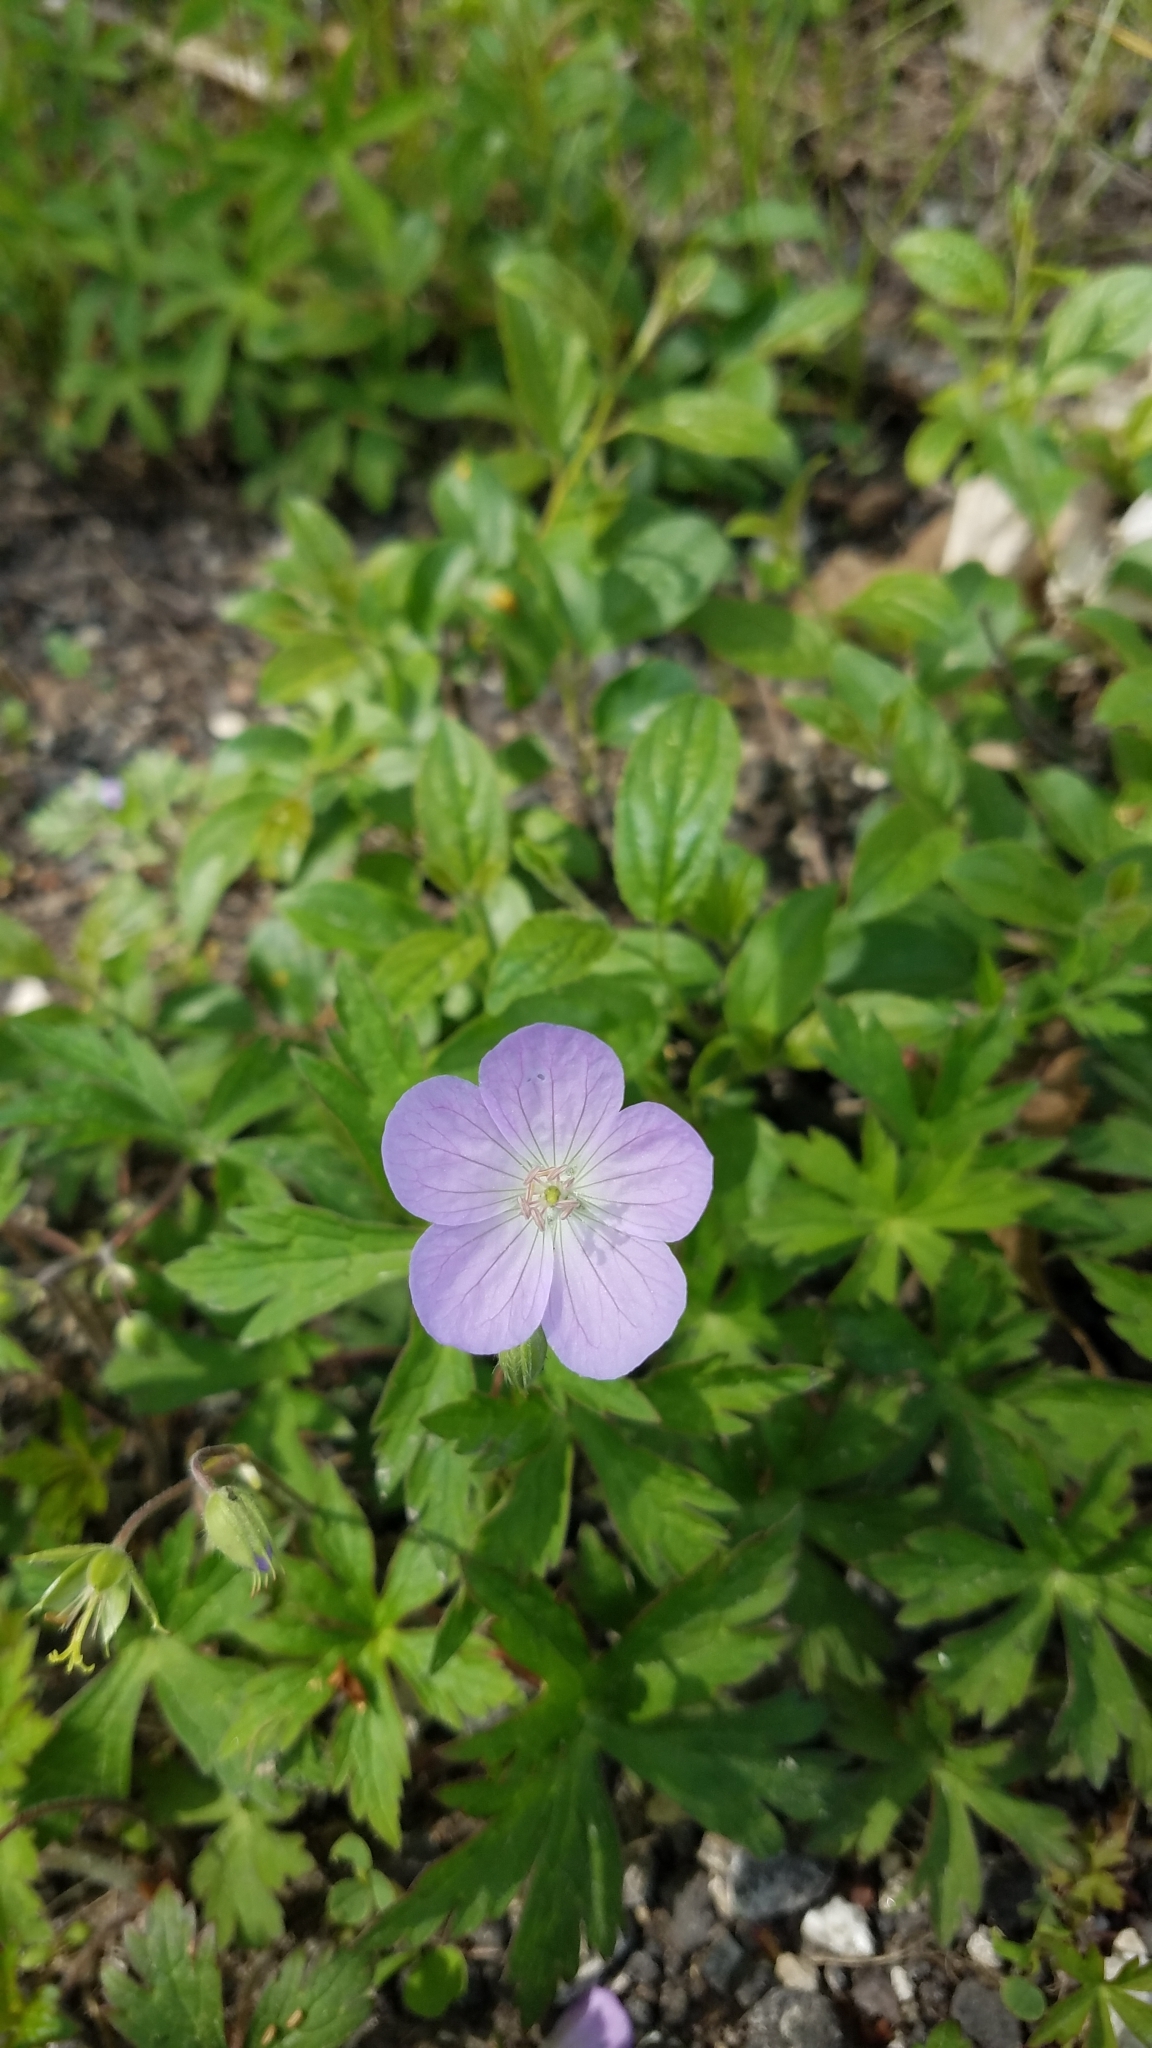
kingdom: Plantae
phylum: Tracheophyta
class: Magnoliopsida
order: Geraniales
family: Geraniaceae
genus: Geranium
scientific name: Geranium maculatum
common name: Spotted geranium
